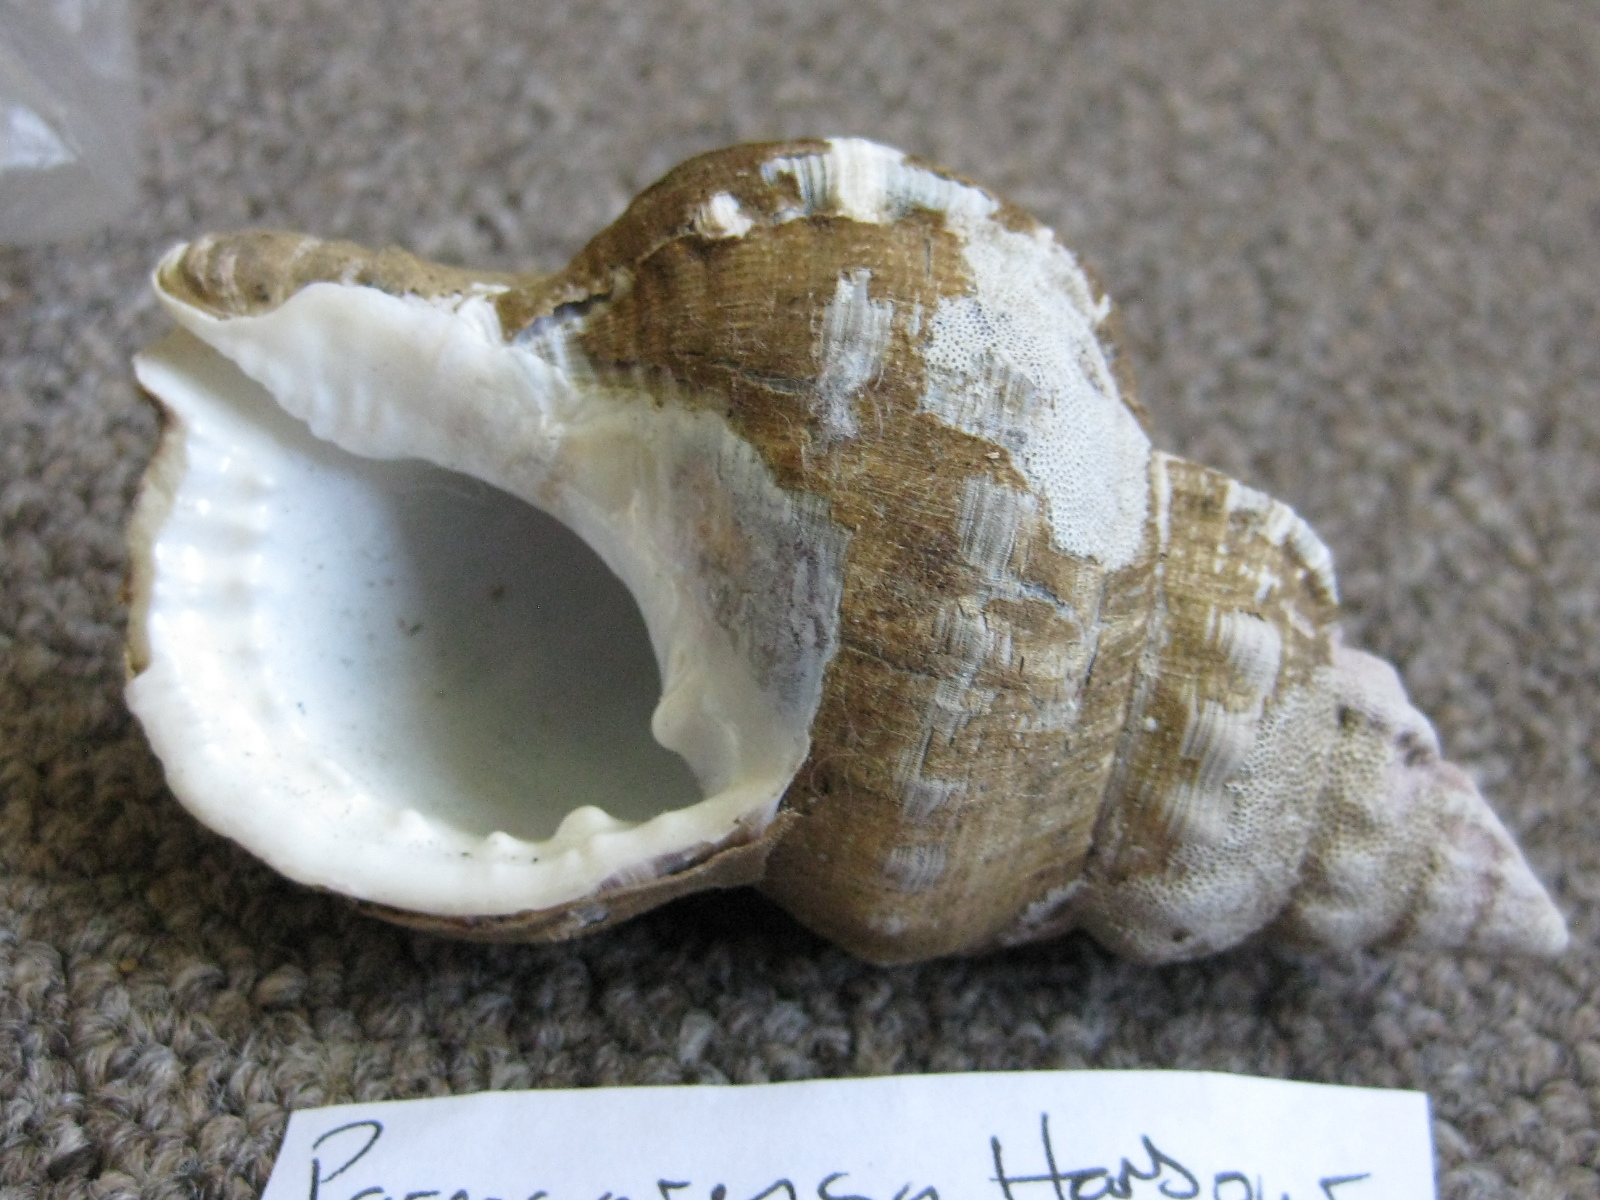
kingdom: Animalia
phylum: Mollusca
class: Gastropoda
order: Littorinimorpha
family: Ranellidae
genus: Ranella
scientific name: Ranella australasia
